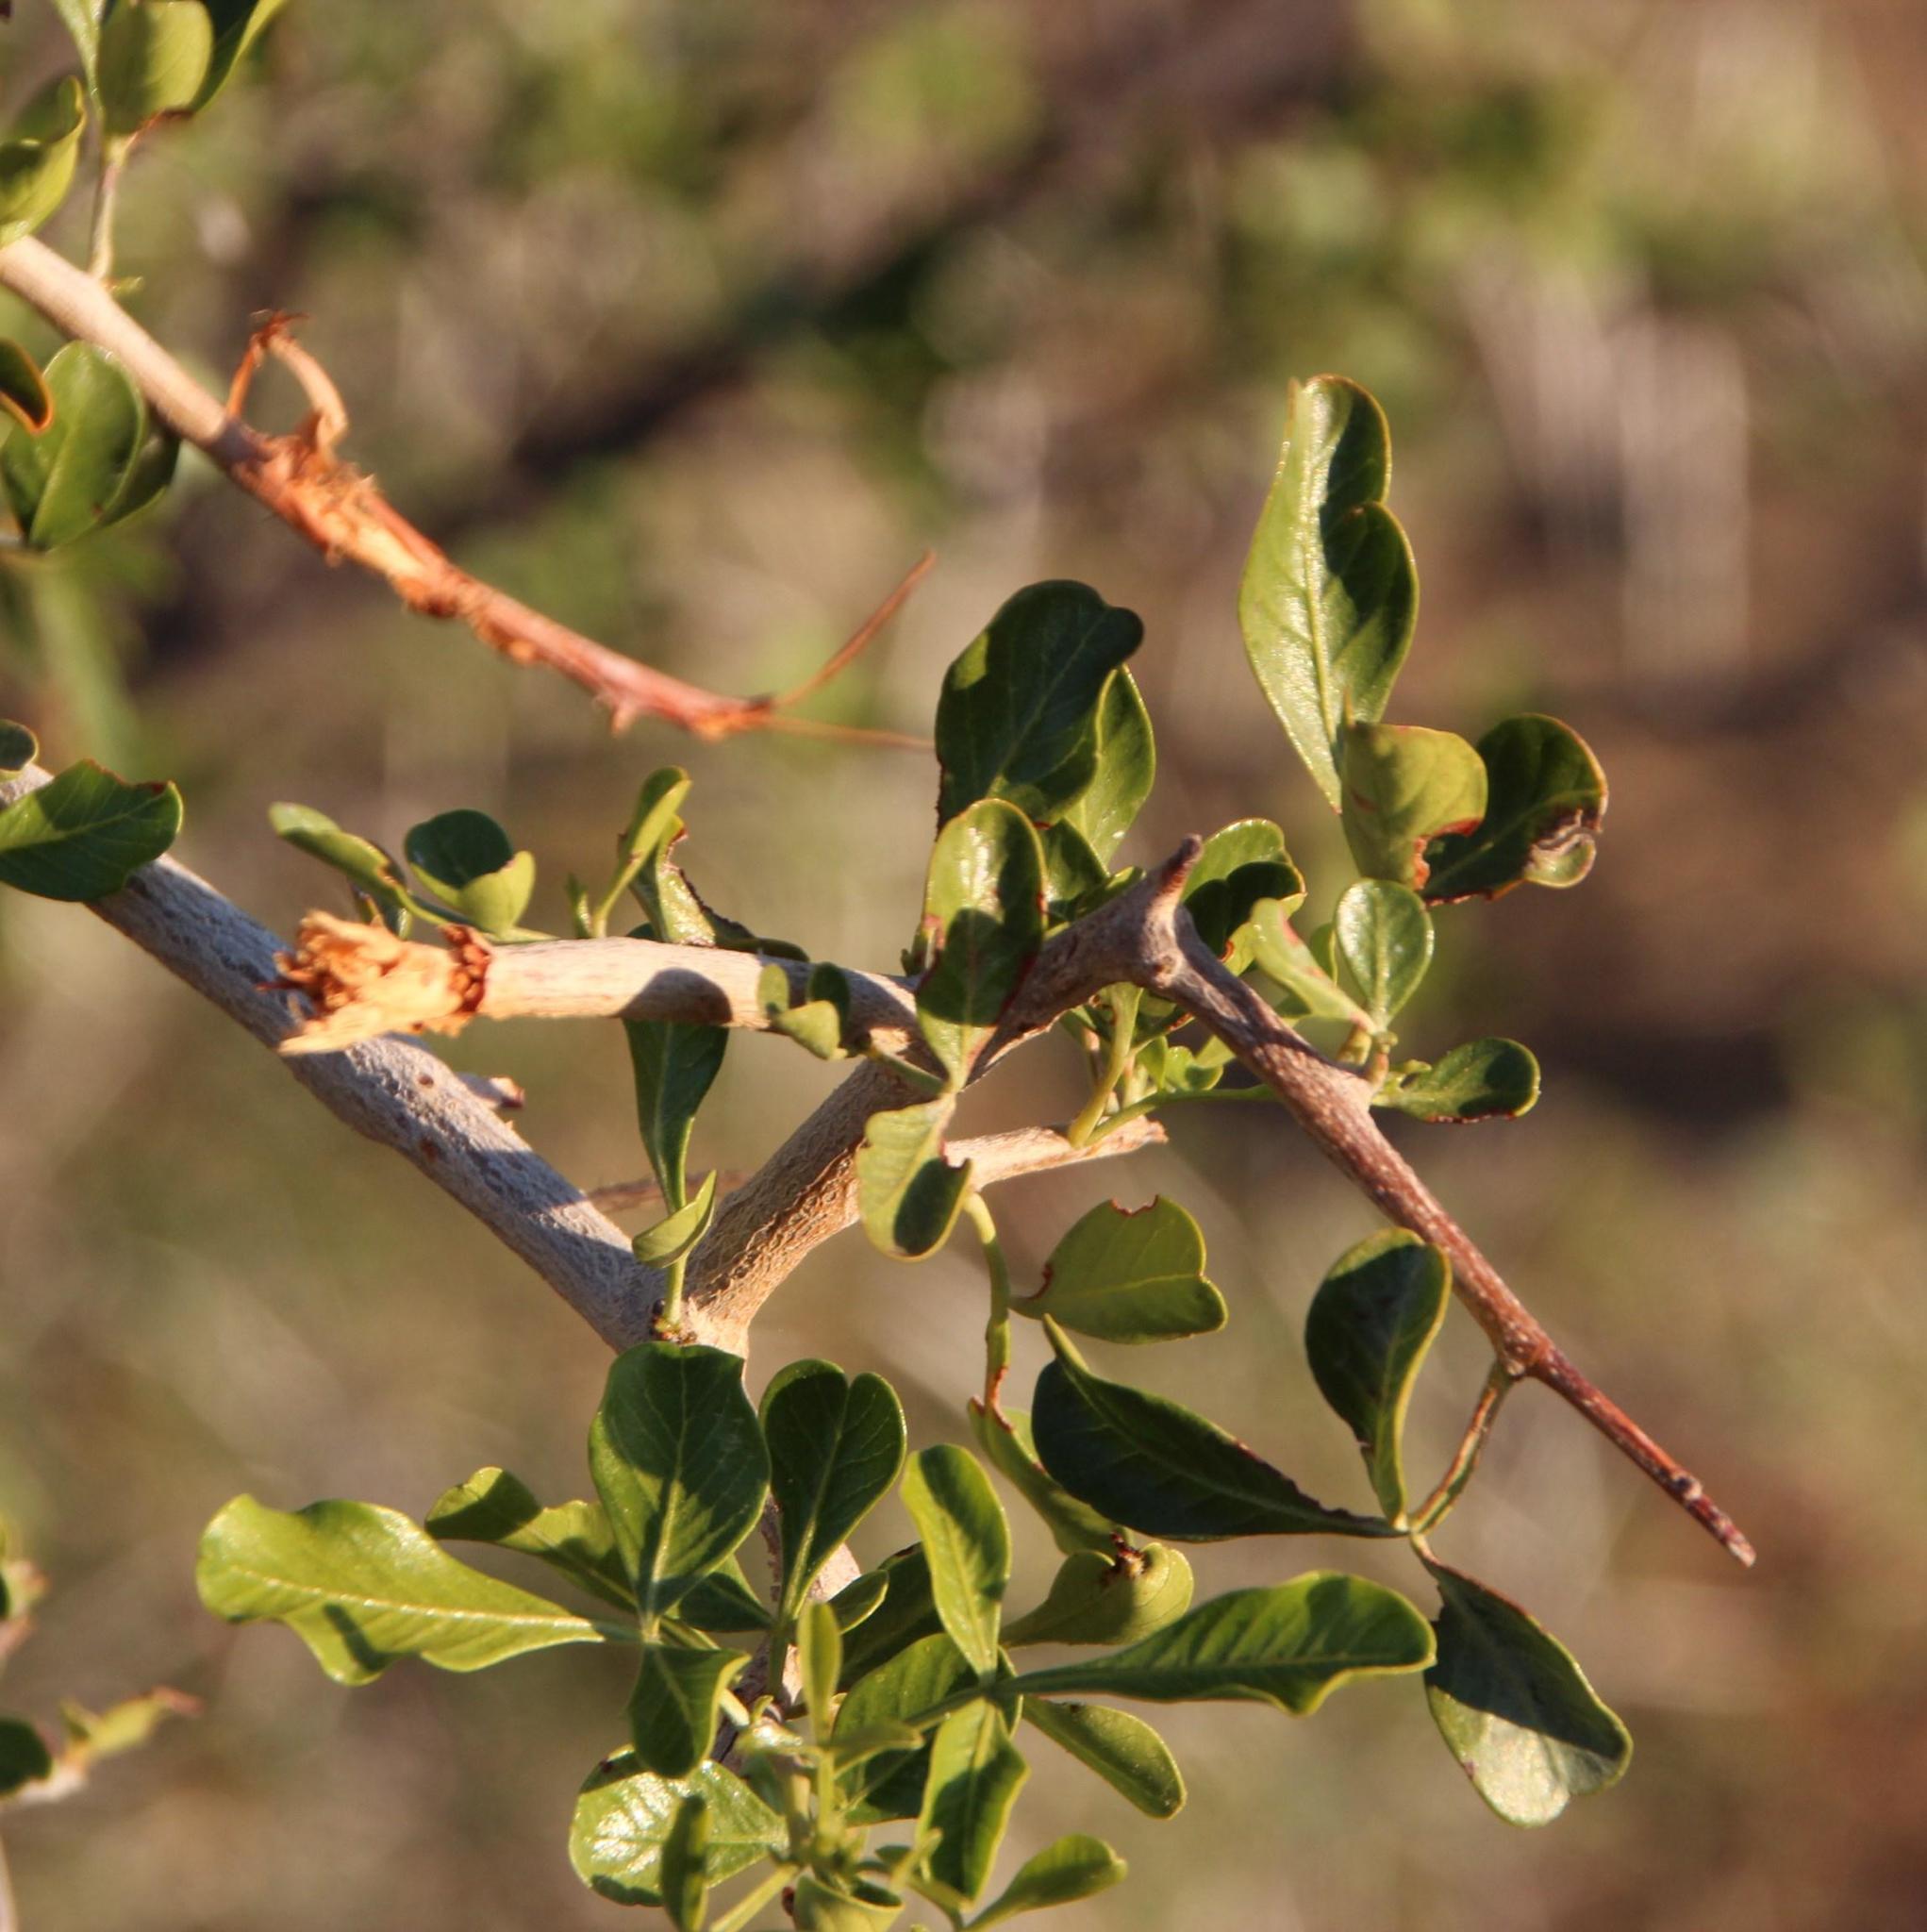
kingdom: Plantae
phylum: Tracheophyta
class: Magnoliopsida
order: Sapindales
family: Anacardiaceae
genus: Searsia
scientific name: Searsia longispina
